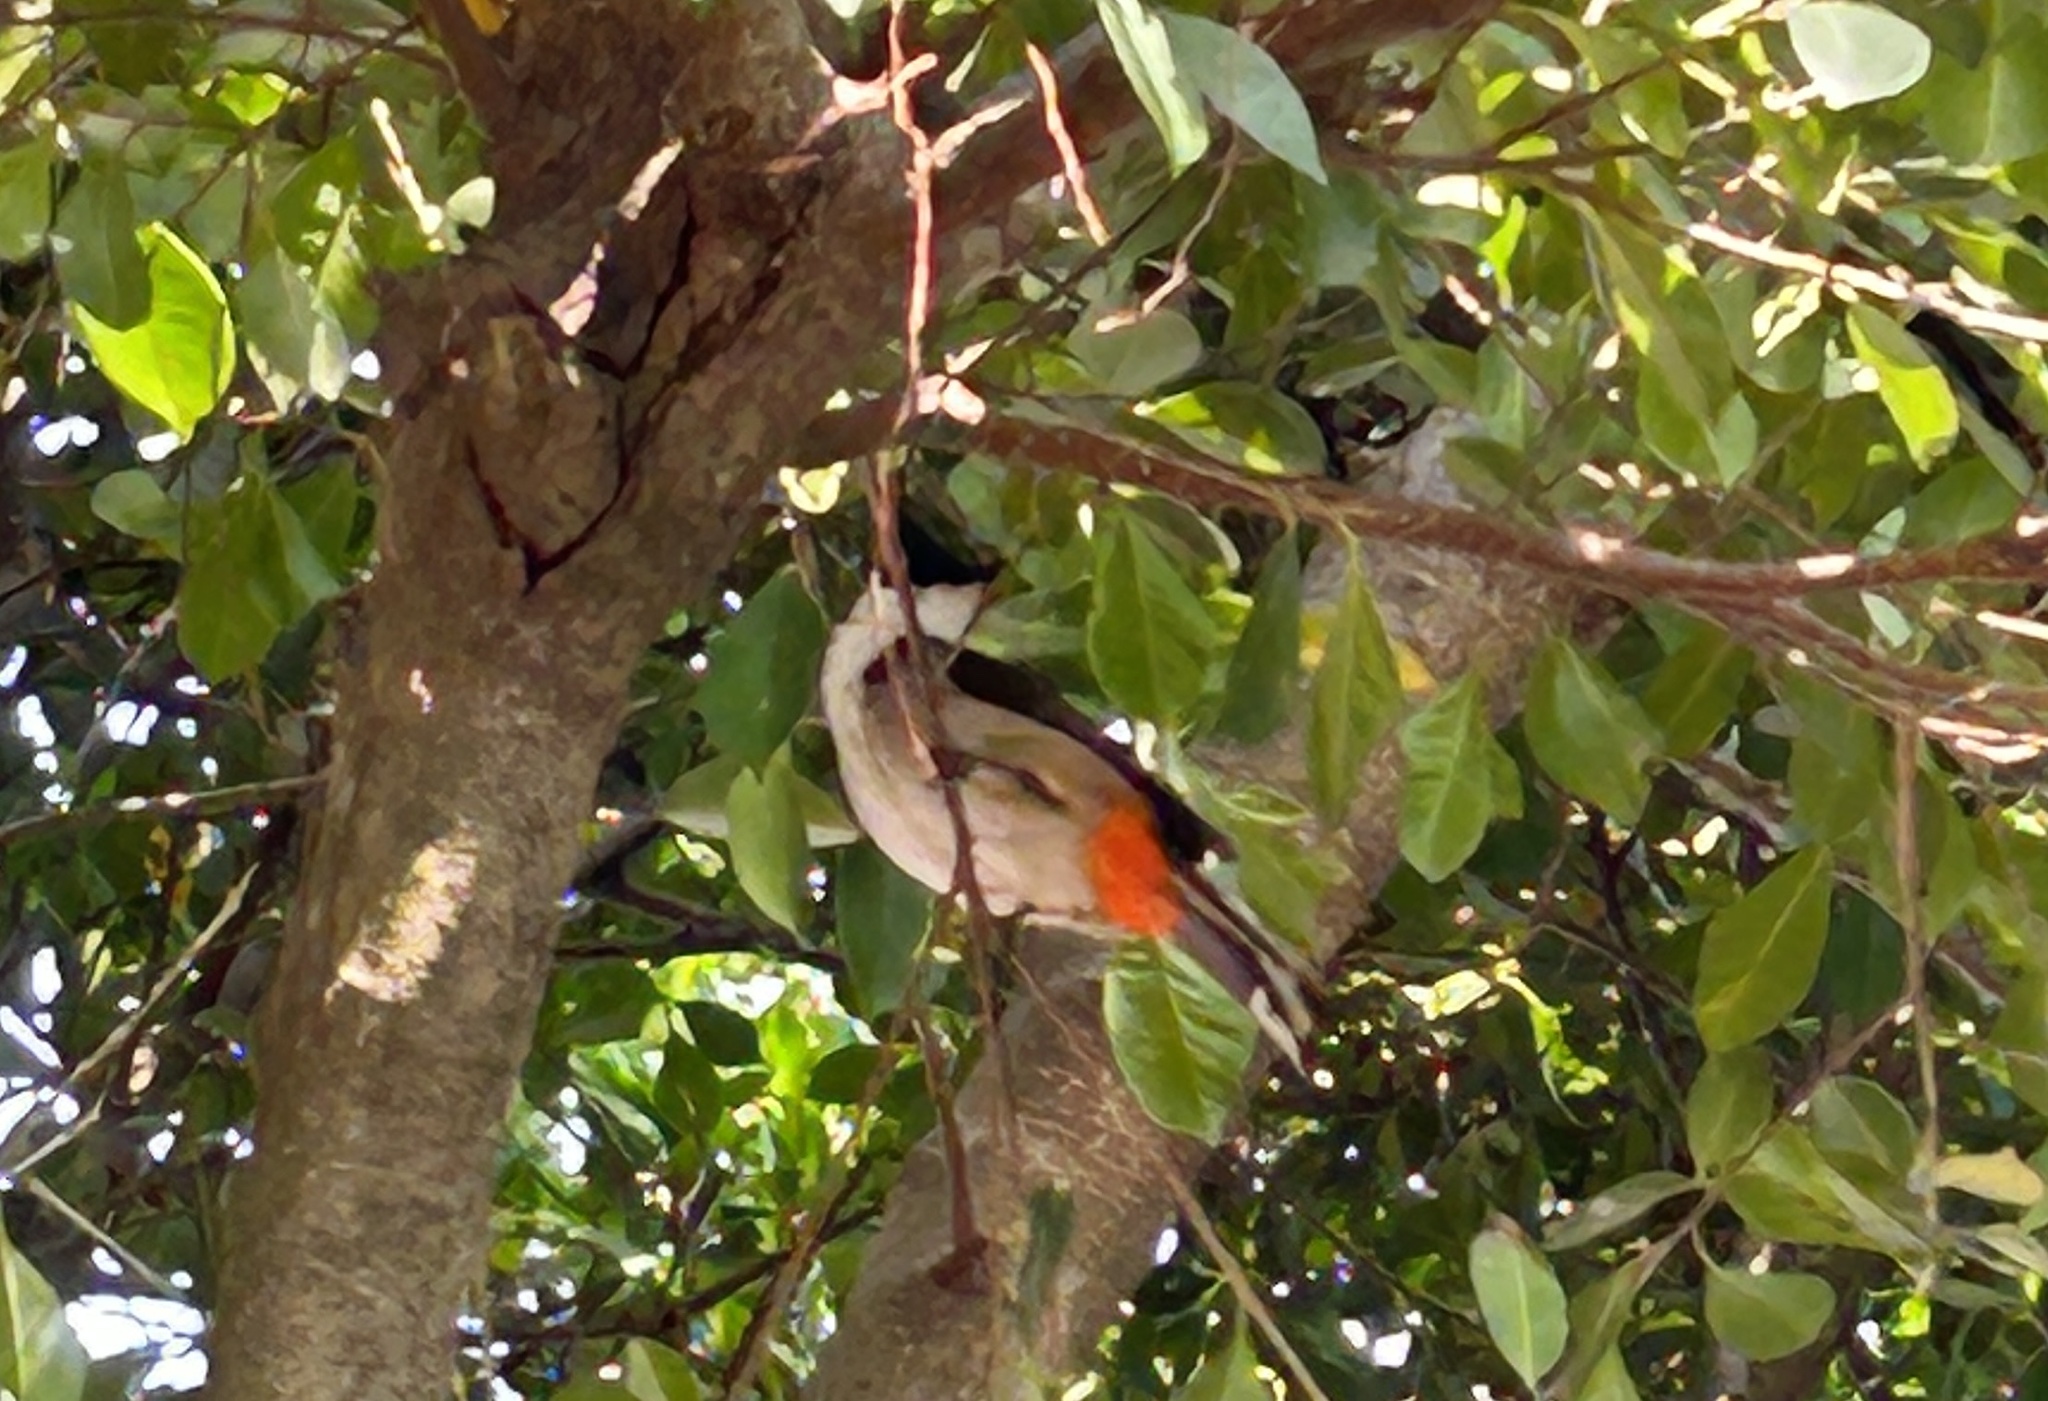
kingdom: Animalia
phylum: Chordata
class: Aves
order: Passeriformes
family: Pycnonotidae
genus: Pycnonotus
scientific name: Pycnonotus jocosus
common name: Red-whiskered bulbul
